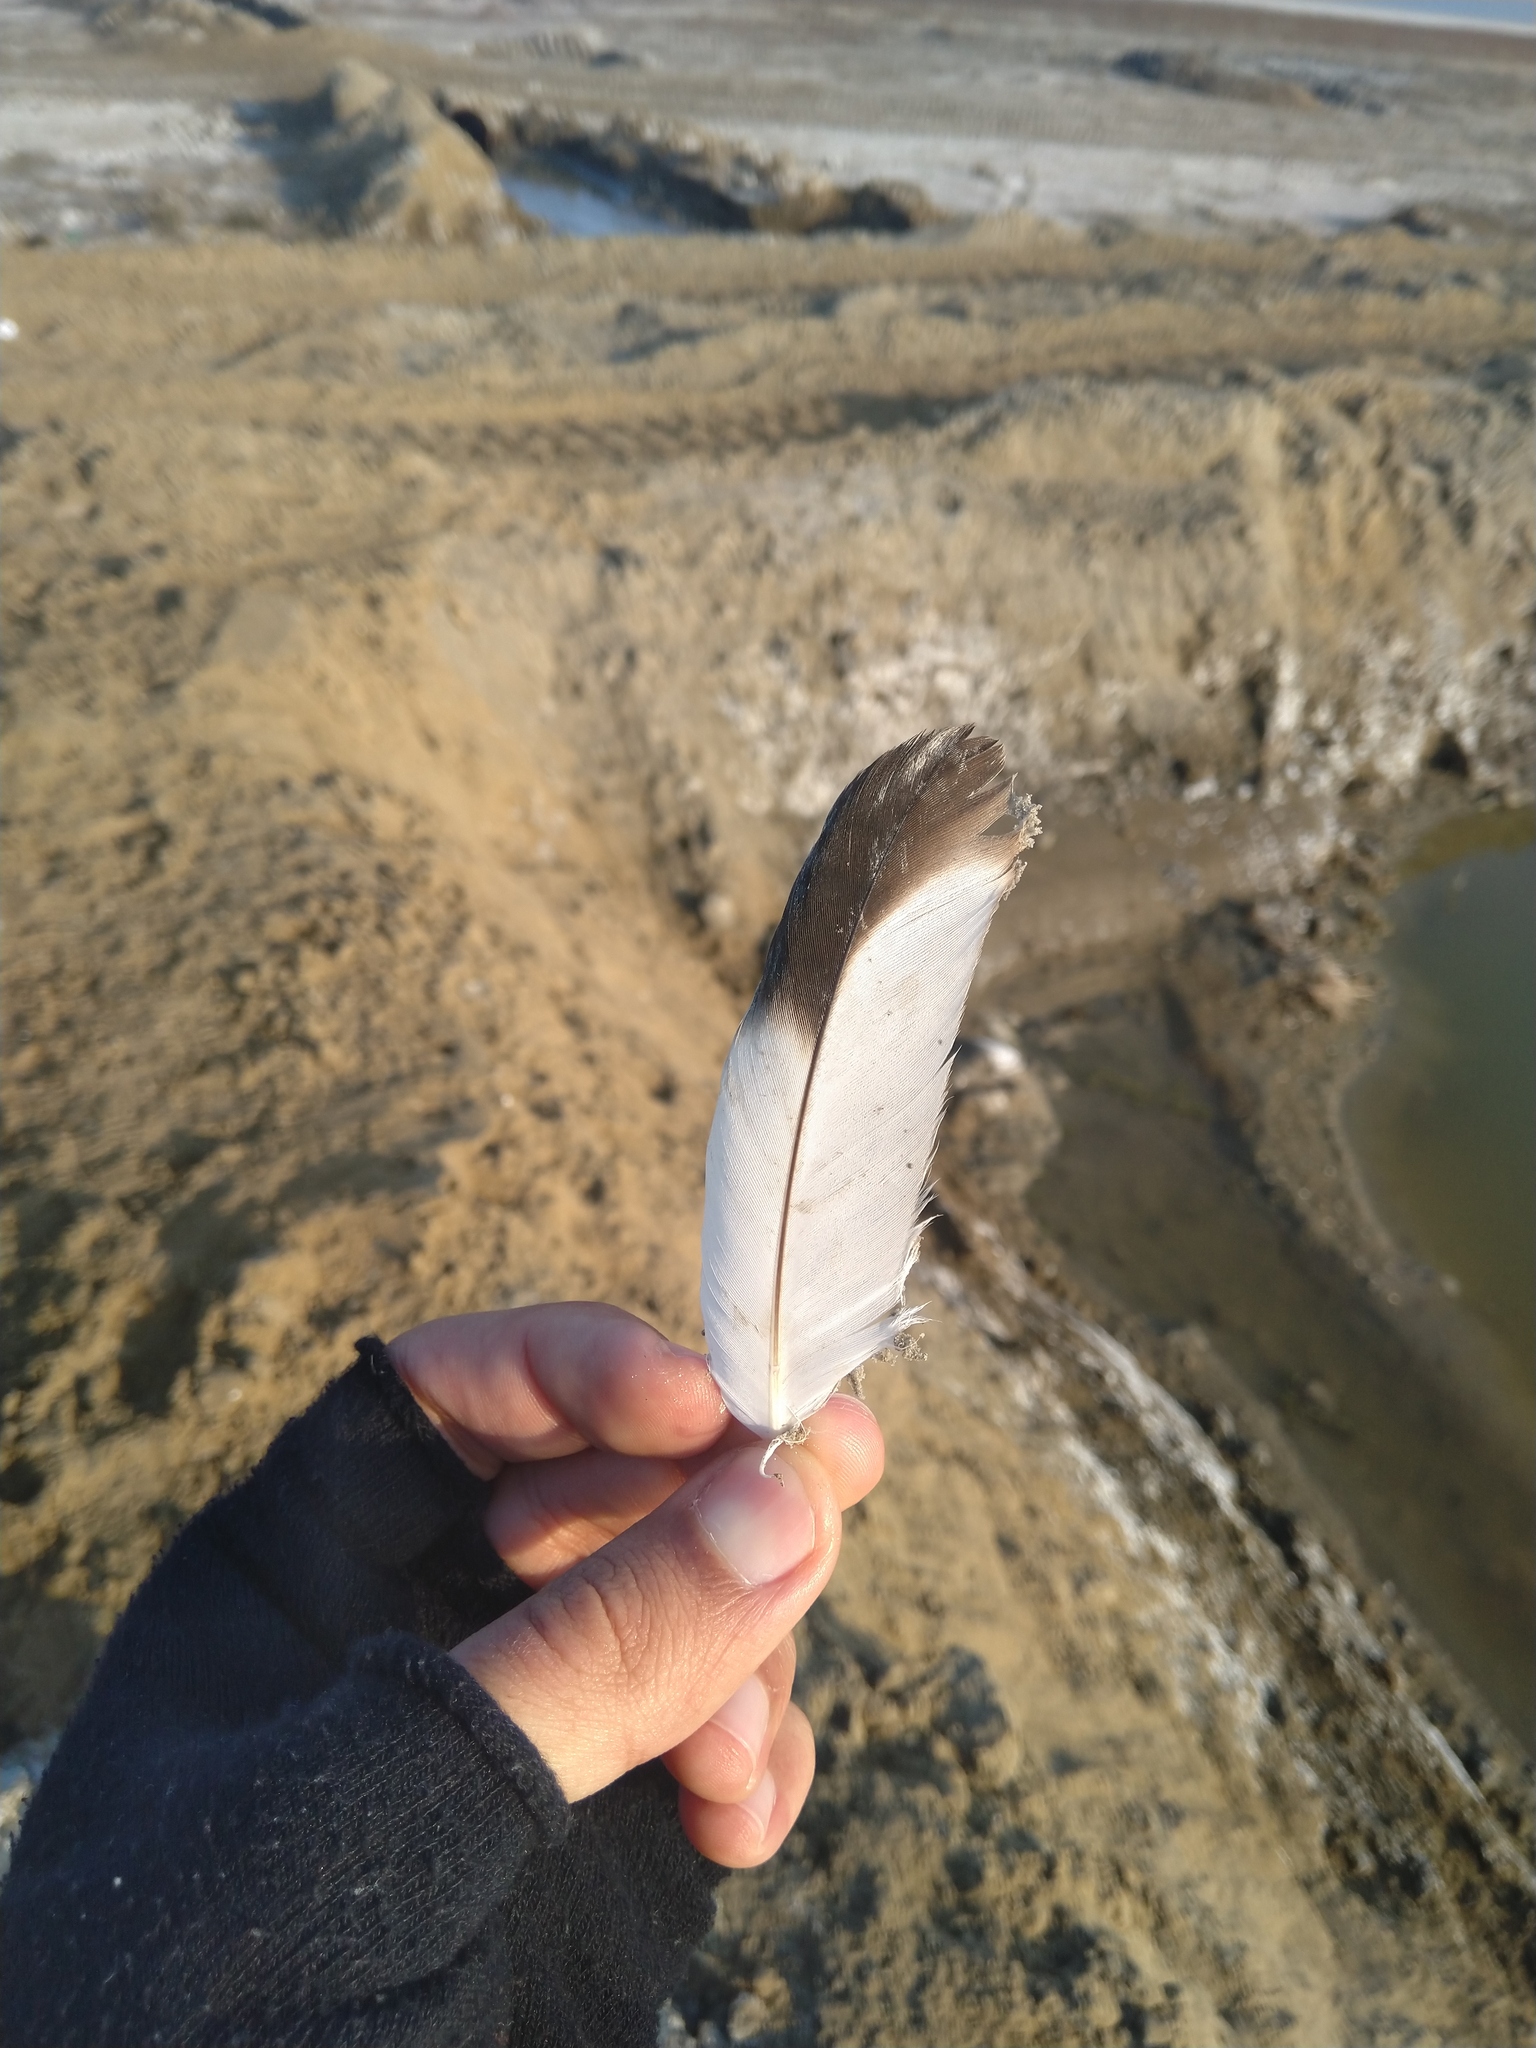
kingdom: Animalia
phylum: Chordata
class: Aves
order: Phoenicopteriformes
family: Phoenicopteridae
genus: Phoenicopterus
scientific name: Phoenicopterus roseus
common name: Greater flamingo
